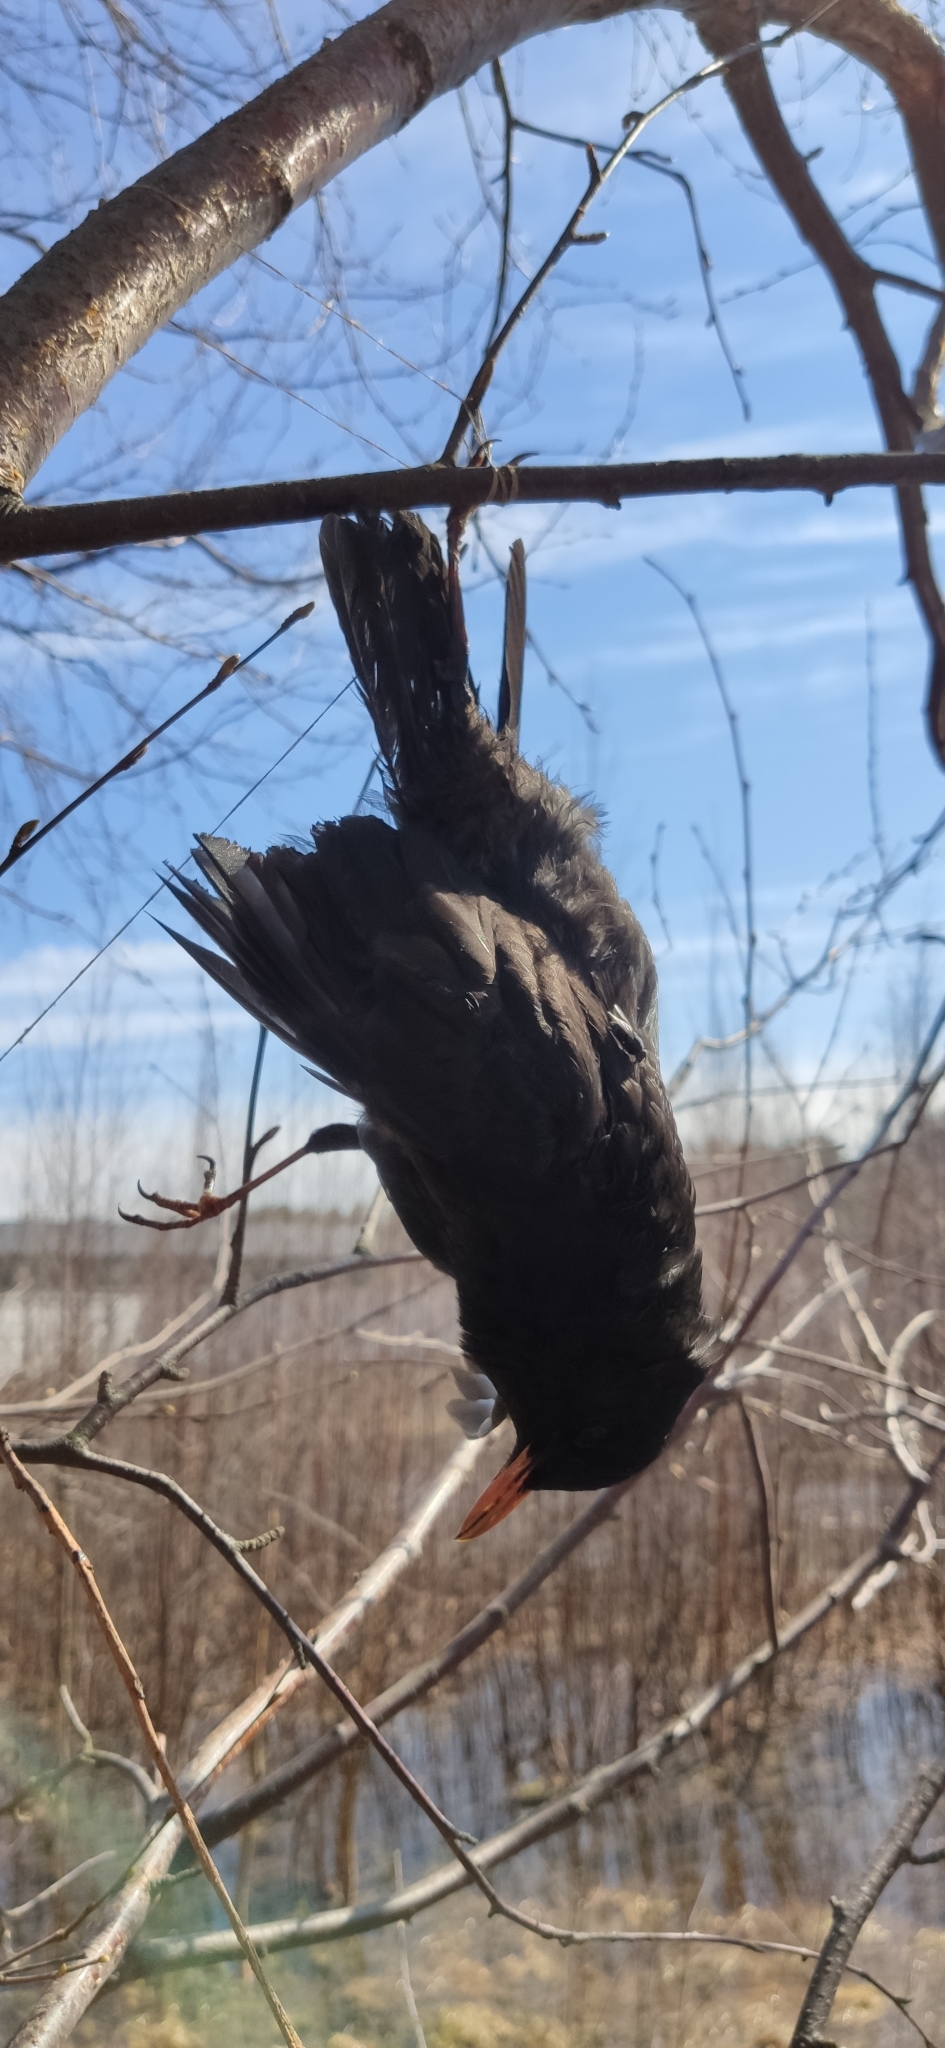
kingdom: Animalia
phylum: Chordata
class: Aves
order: Passeriformes
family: Turdidae
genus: Turdus
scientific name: Turdus merula
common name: Common blackbird
